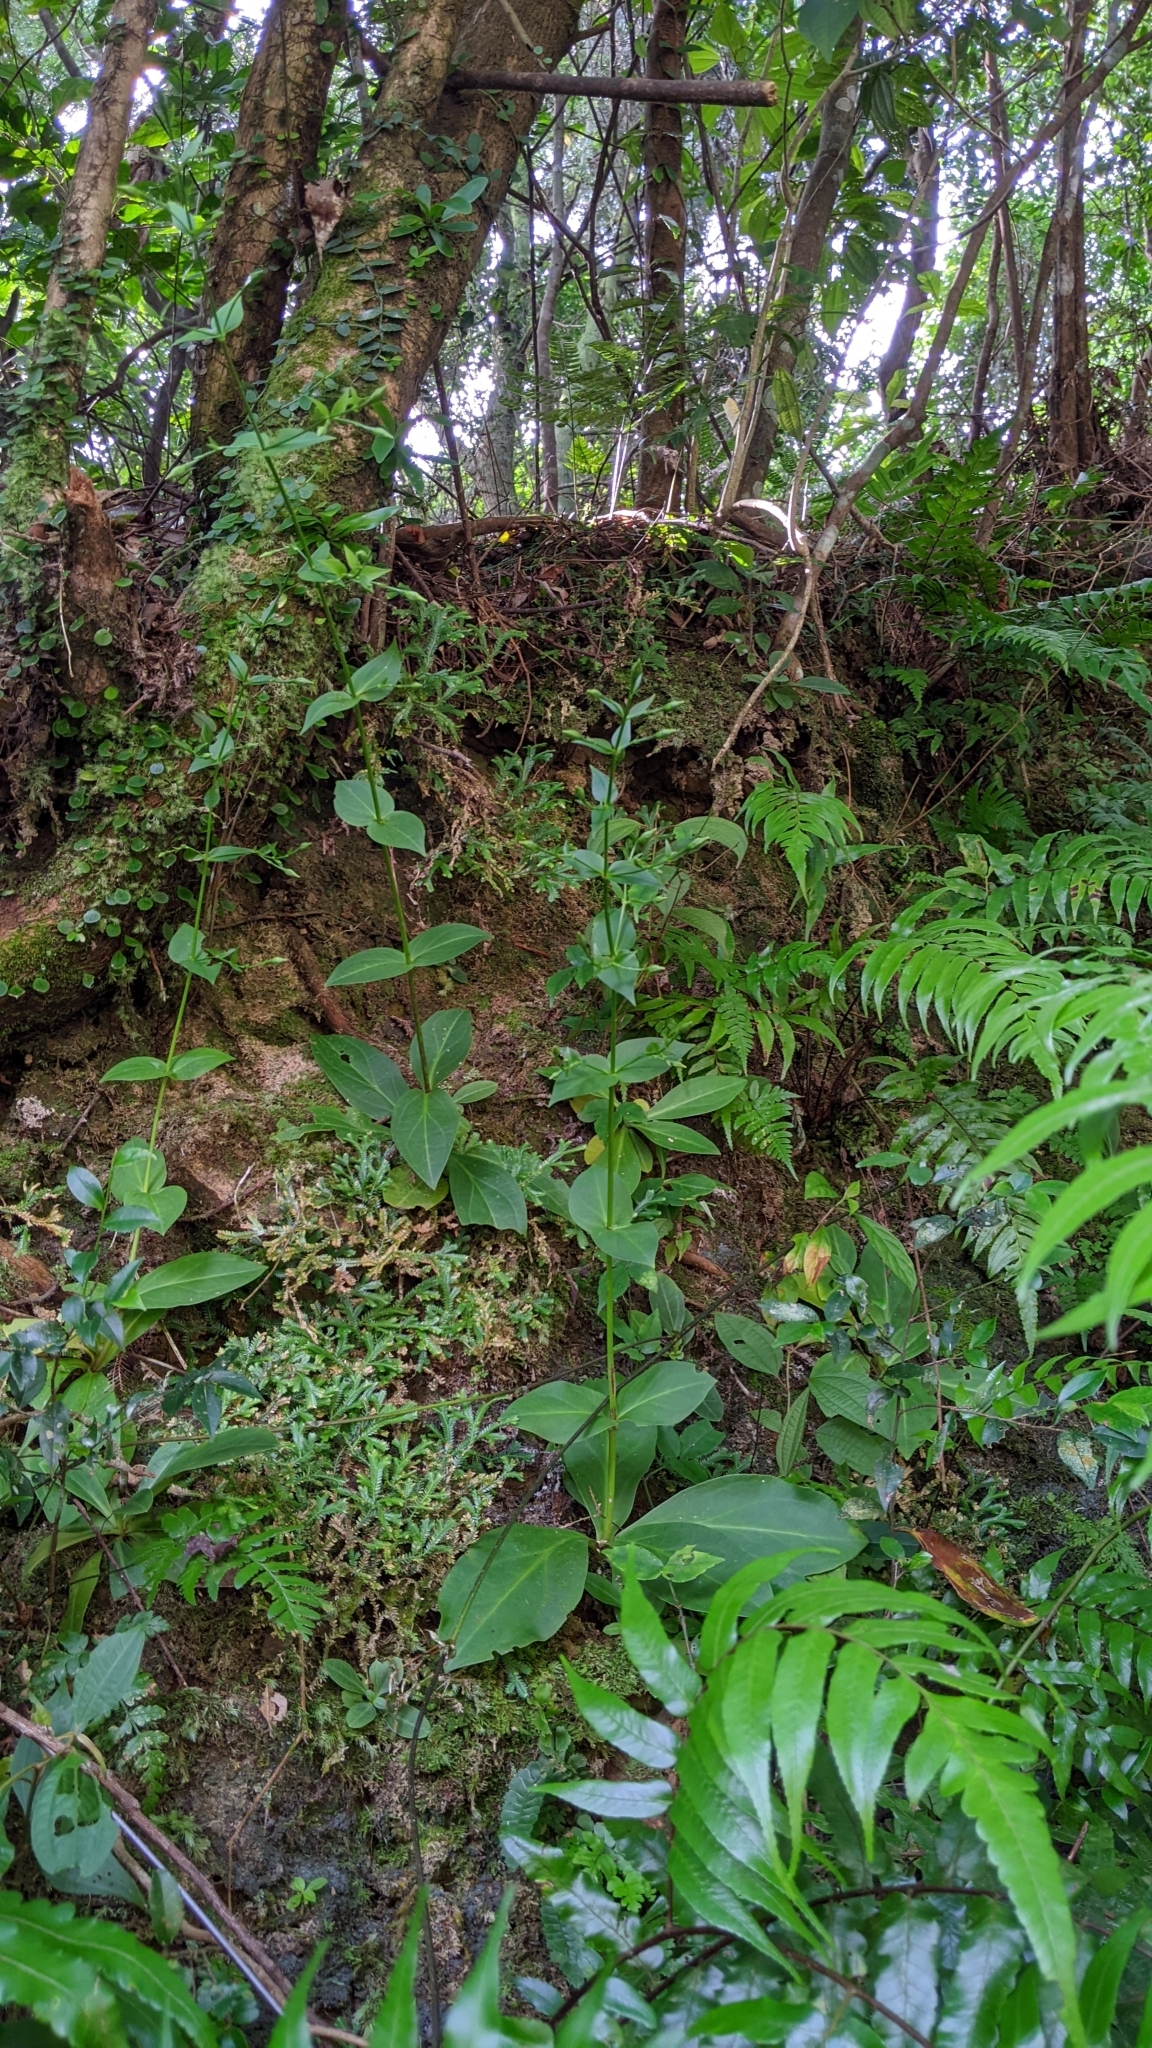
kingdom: Plantae
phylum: Tracheophyta
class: Magnoliopsida
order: Gentianales
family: Gentianaceae
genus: Swertia
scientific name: Swertia shintenensis
